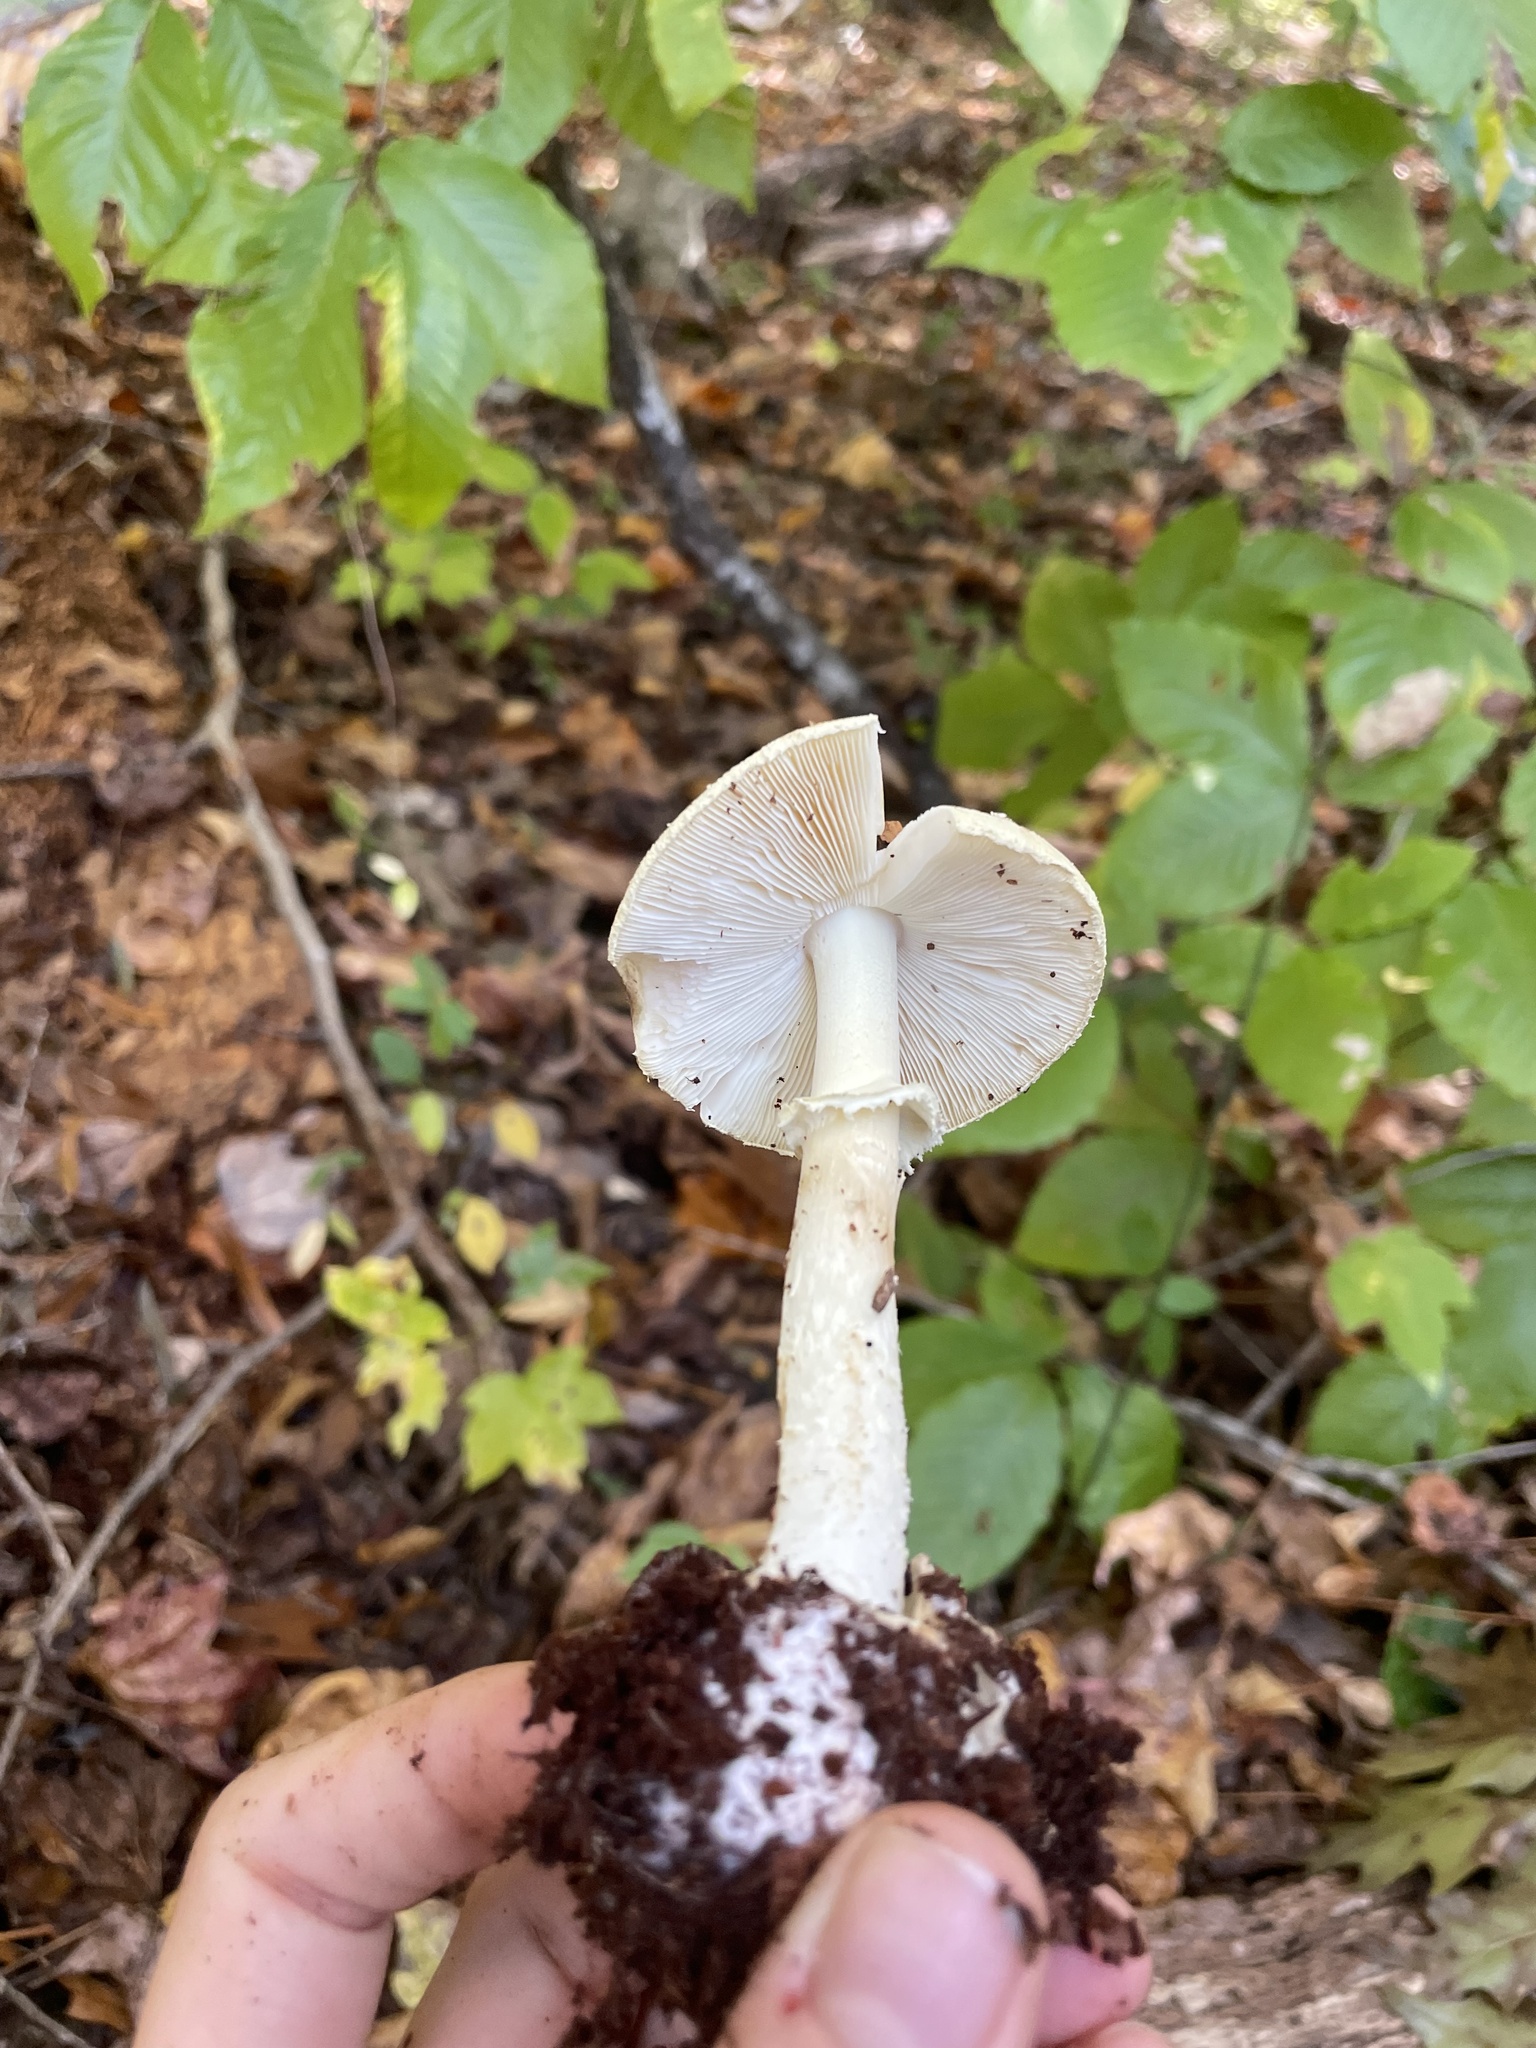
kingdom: Fungi
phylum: Basidiomycota
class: Agaricomycetes
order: Agaricales
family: Amanitaceae
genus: Amanita
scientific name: Amanita lavendula
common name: Coker's lavender staining amanita
